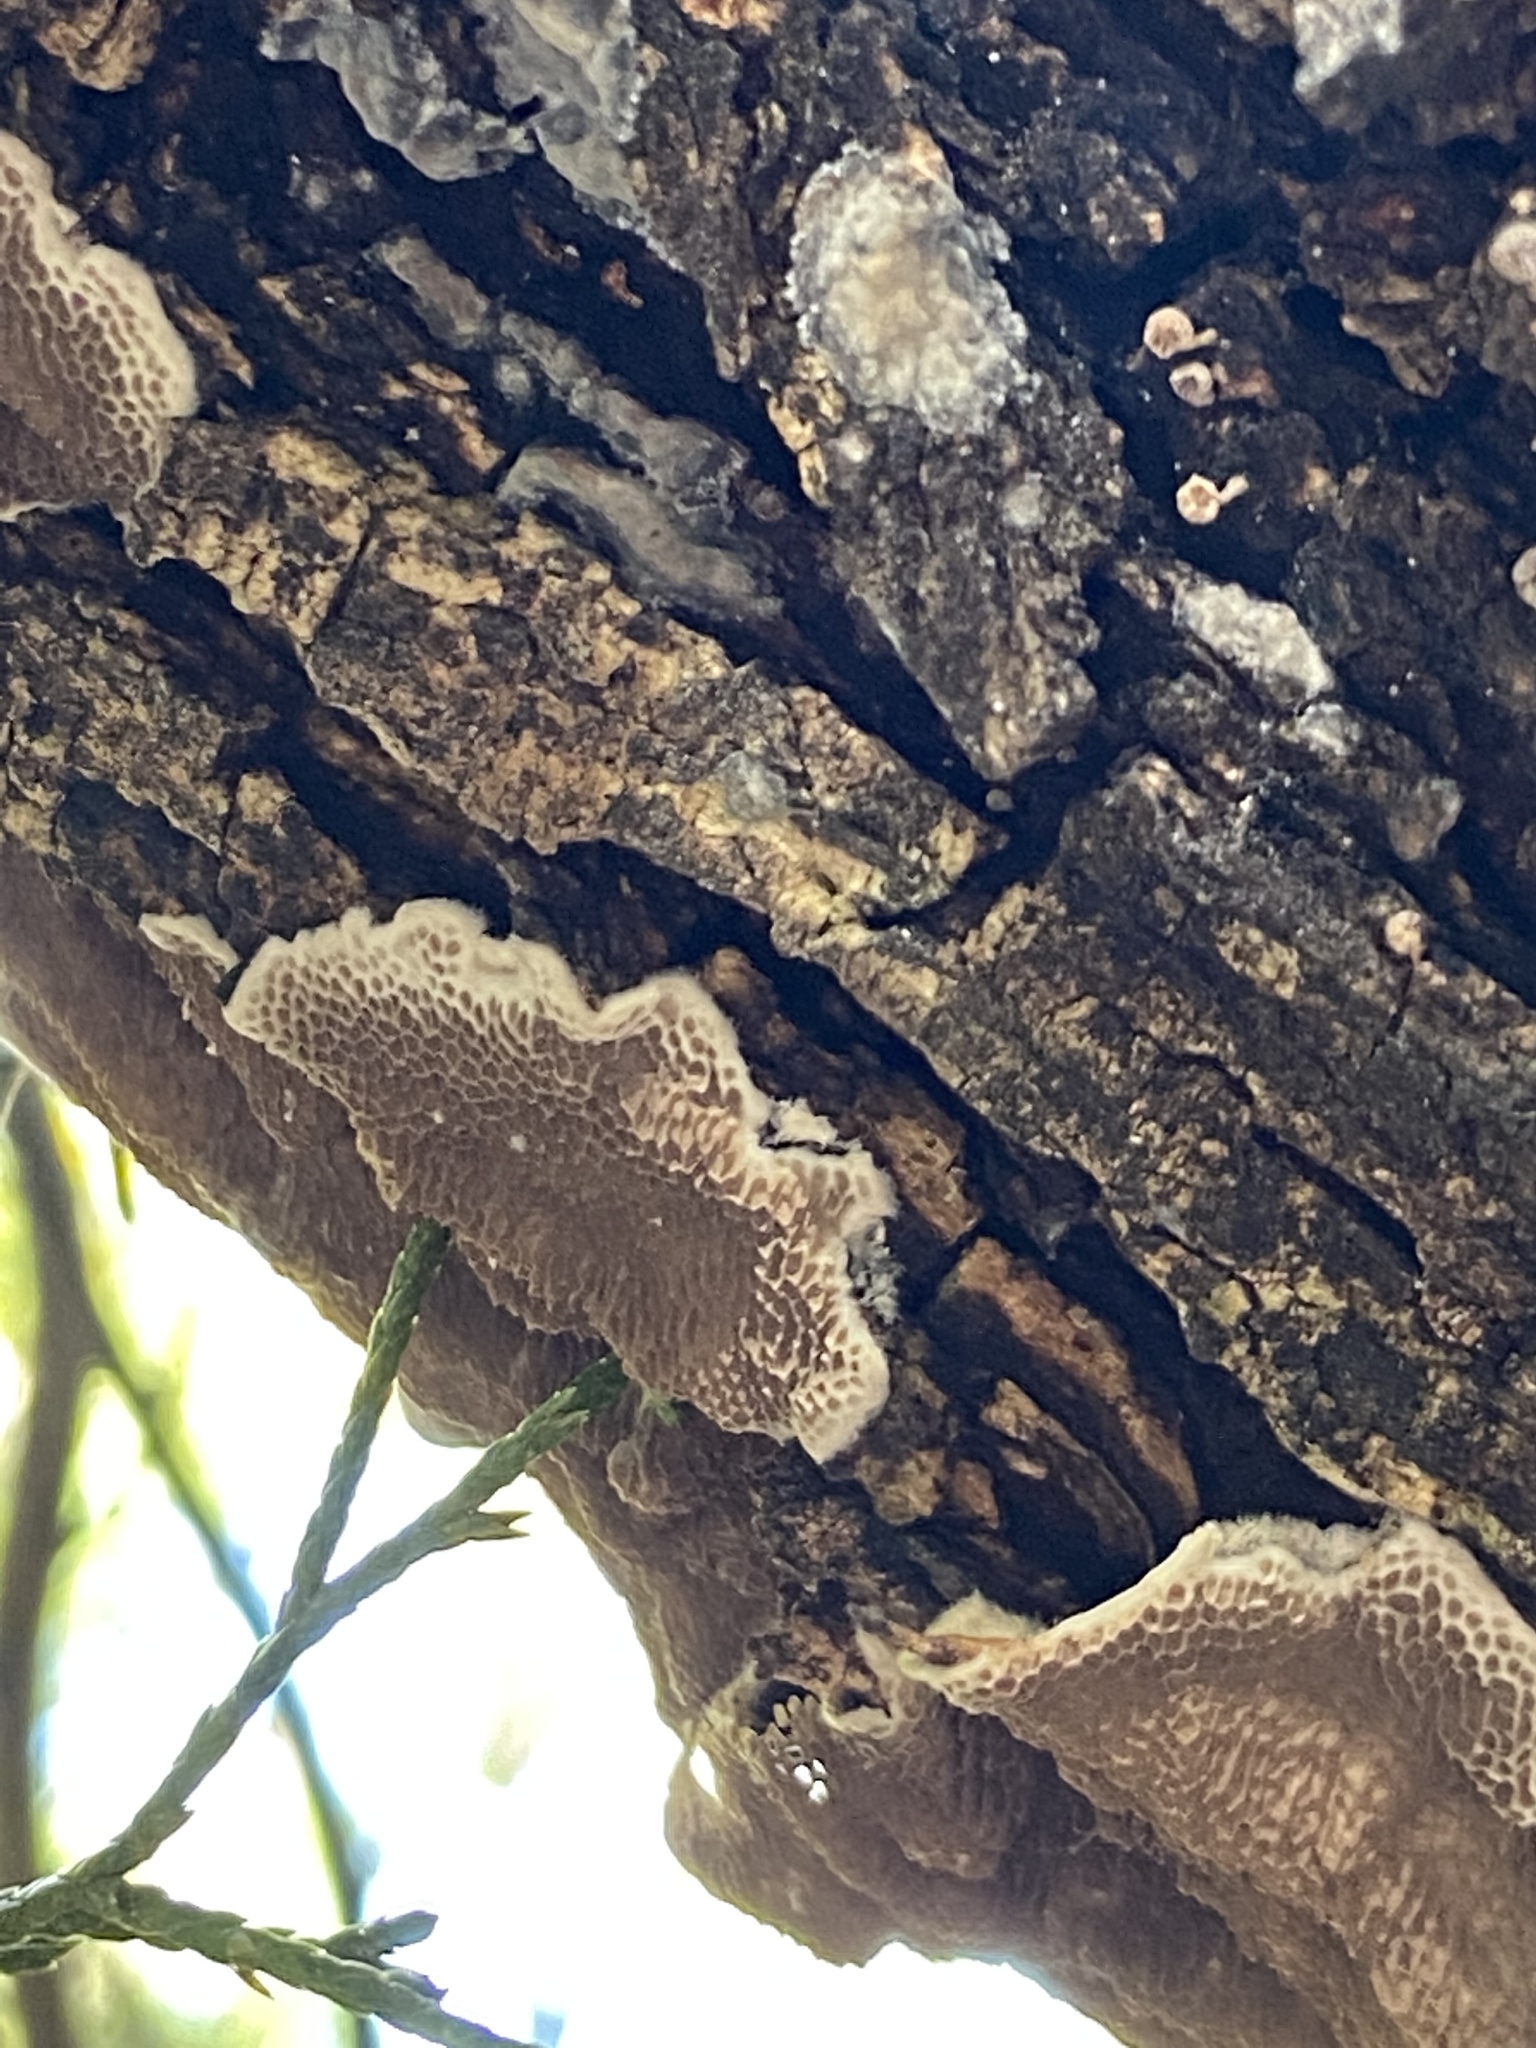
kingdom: Fungi
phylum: Basidiomycota
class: Agaricomycetes
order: Polyporales
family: Polyporaceae
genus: Trametes
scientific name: Trametes villosa
